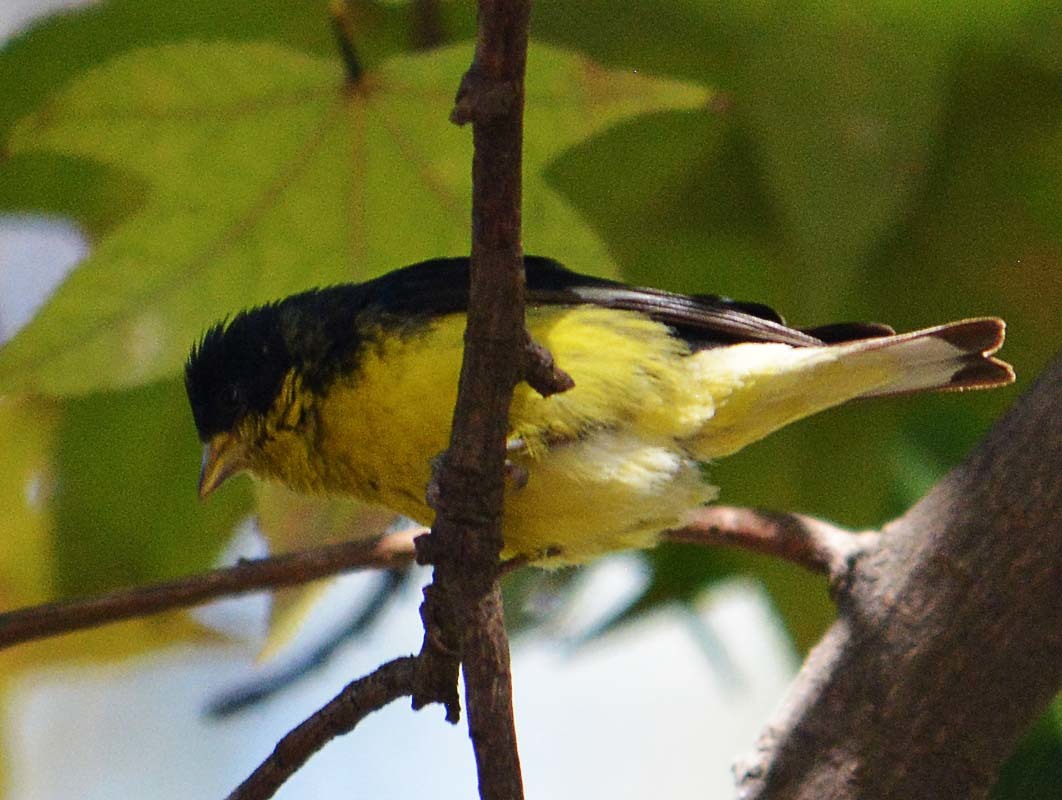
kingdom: Animalia
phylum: Chordata
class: Aves
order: Passeriformes
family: Fringillidae
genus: Spinus
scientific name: Spinus psaltria
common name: Lesser goldfinch
